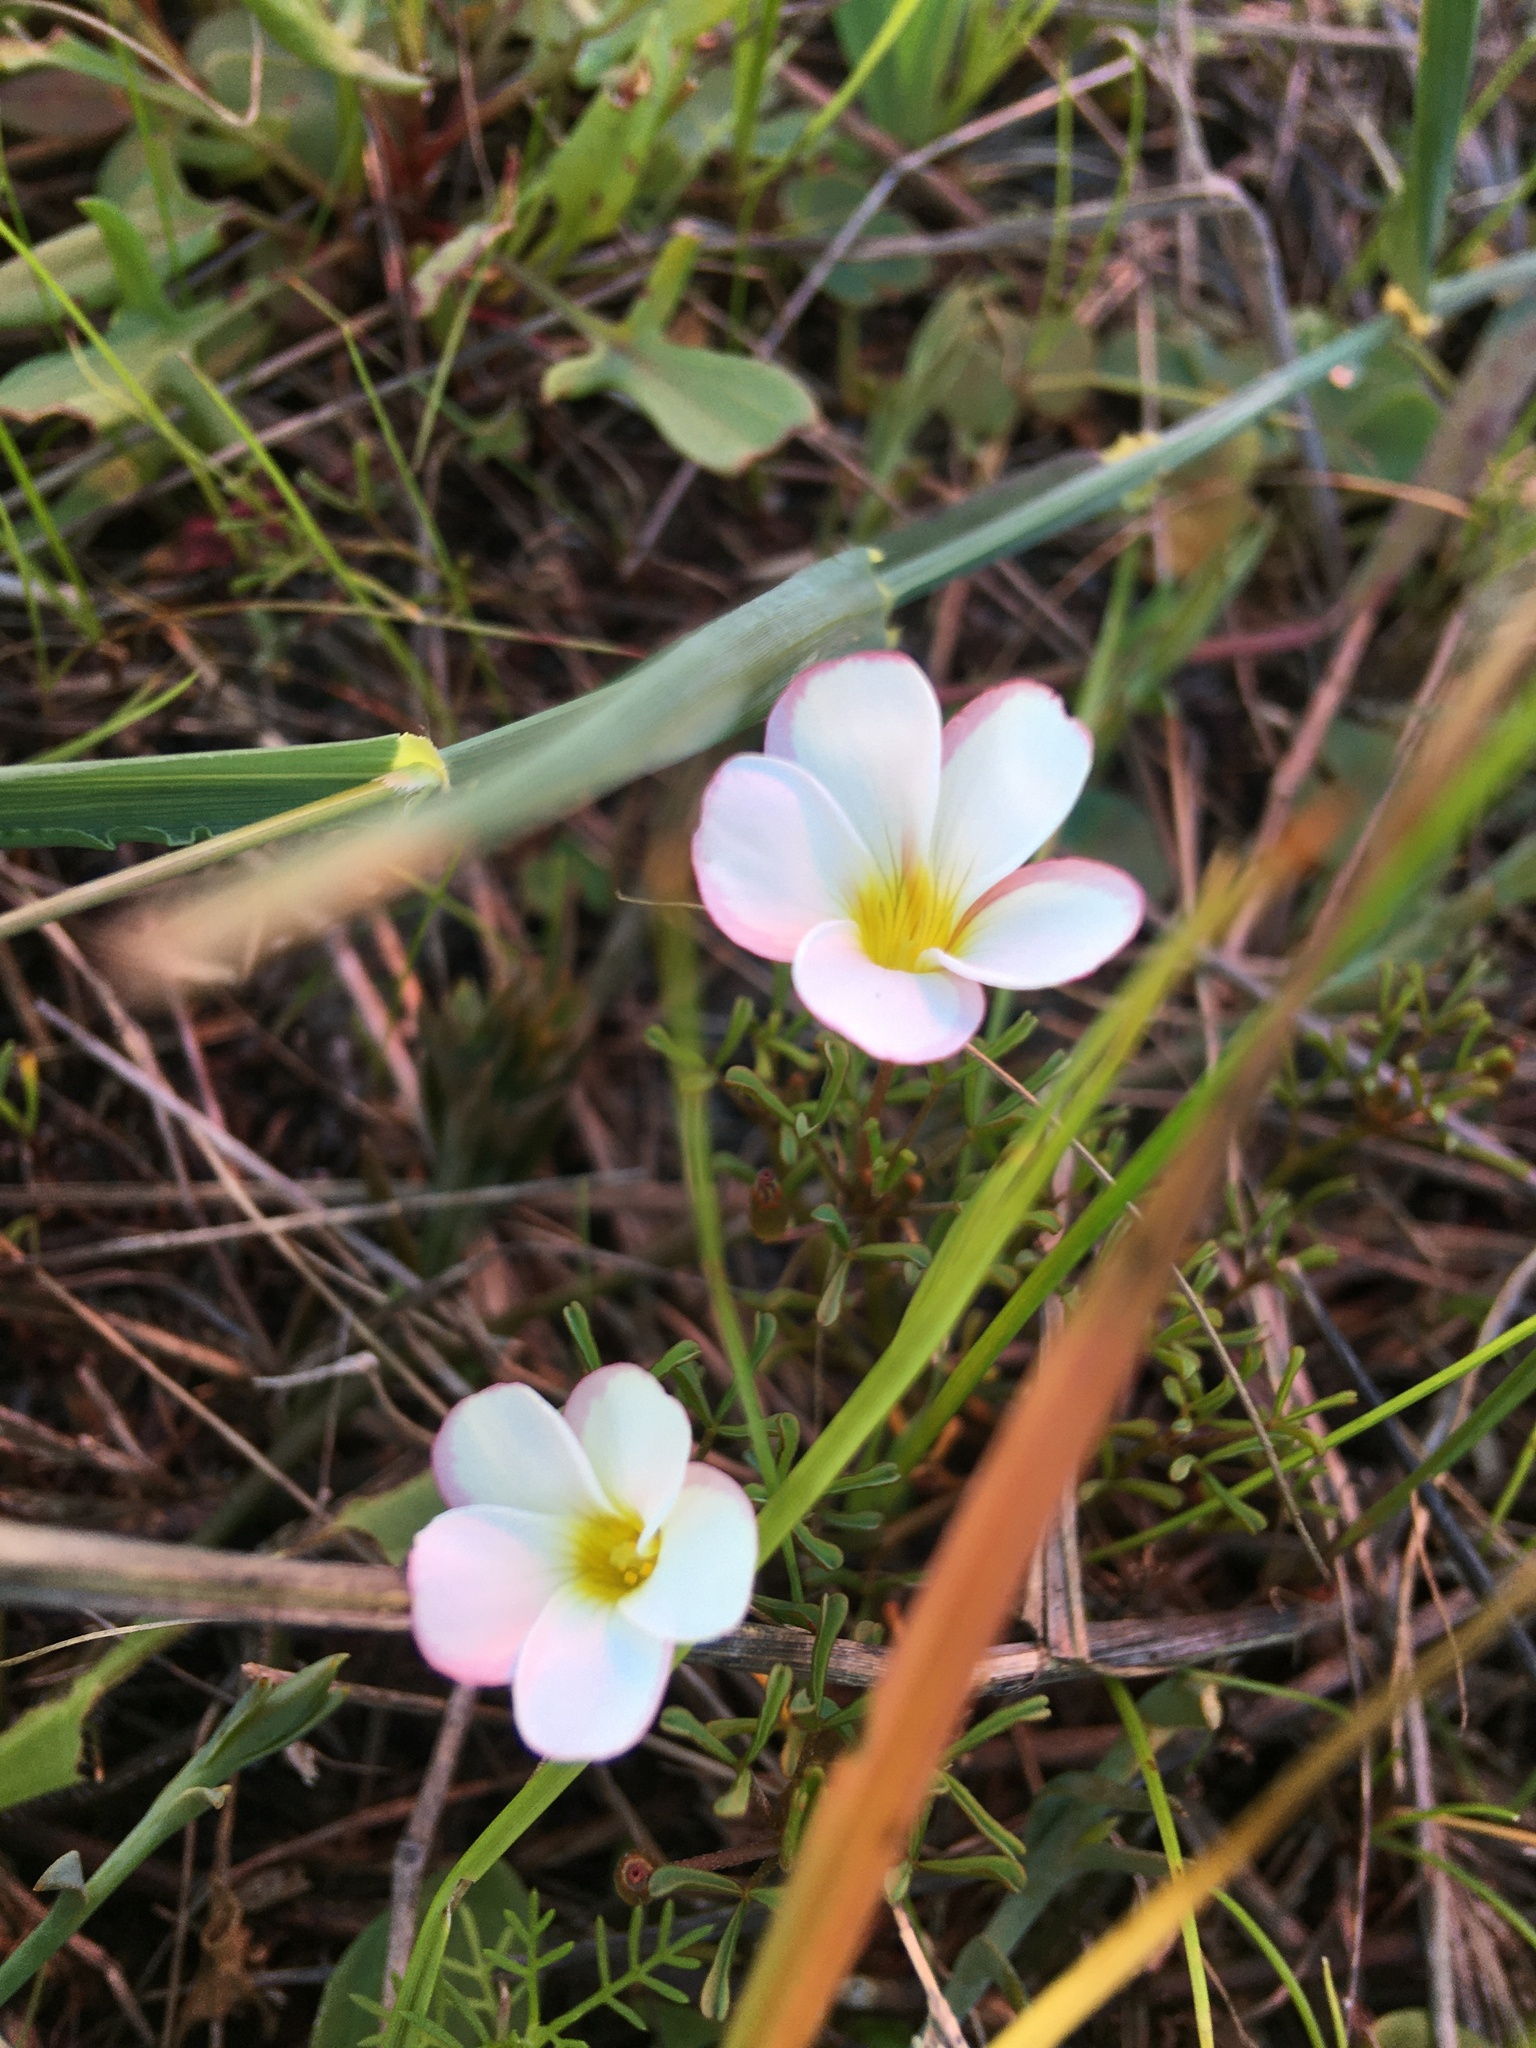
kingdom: Plantae
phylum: Tracheophyta
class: Magnoliopsida
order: Oxalidales
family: Oxalidaceae
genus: Oxalis
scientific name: Oxalis versicolor
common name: Peppermint rock oxalis
